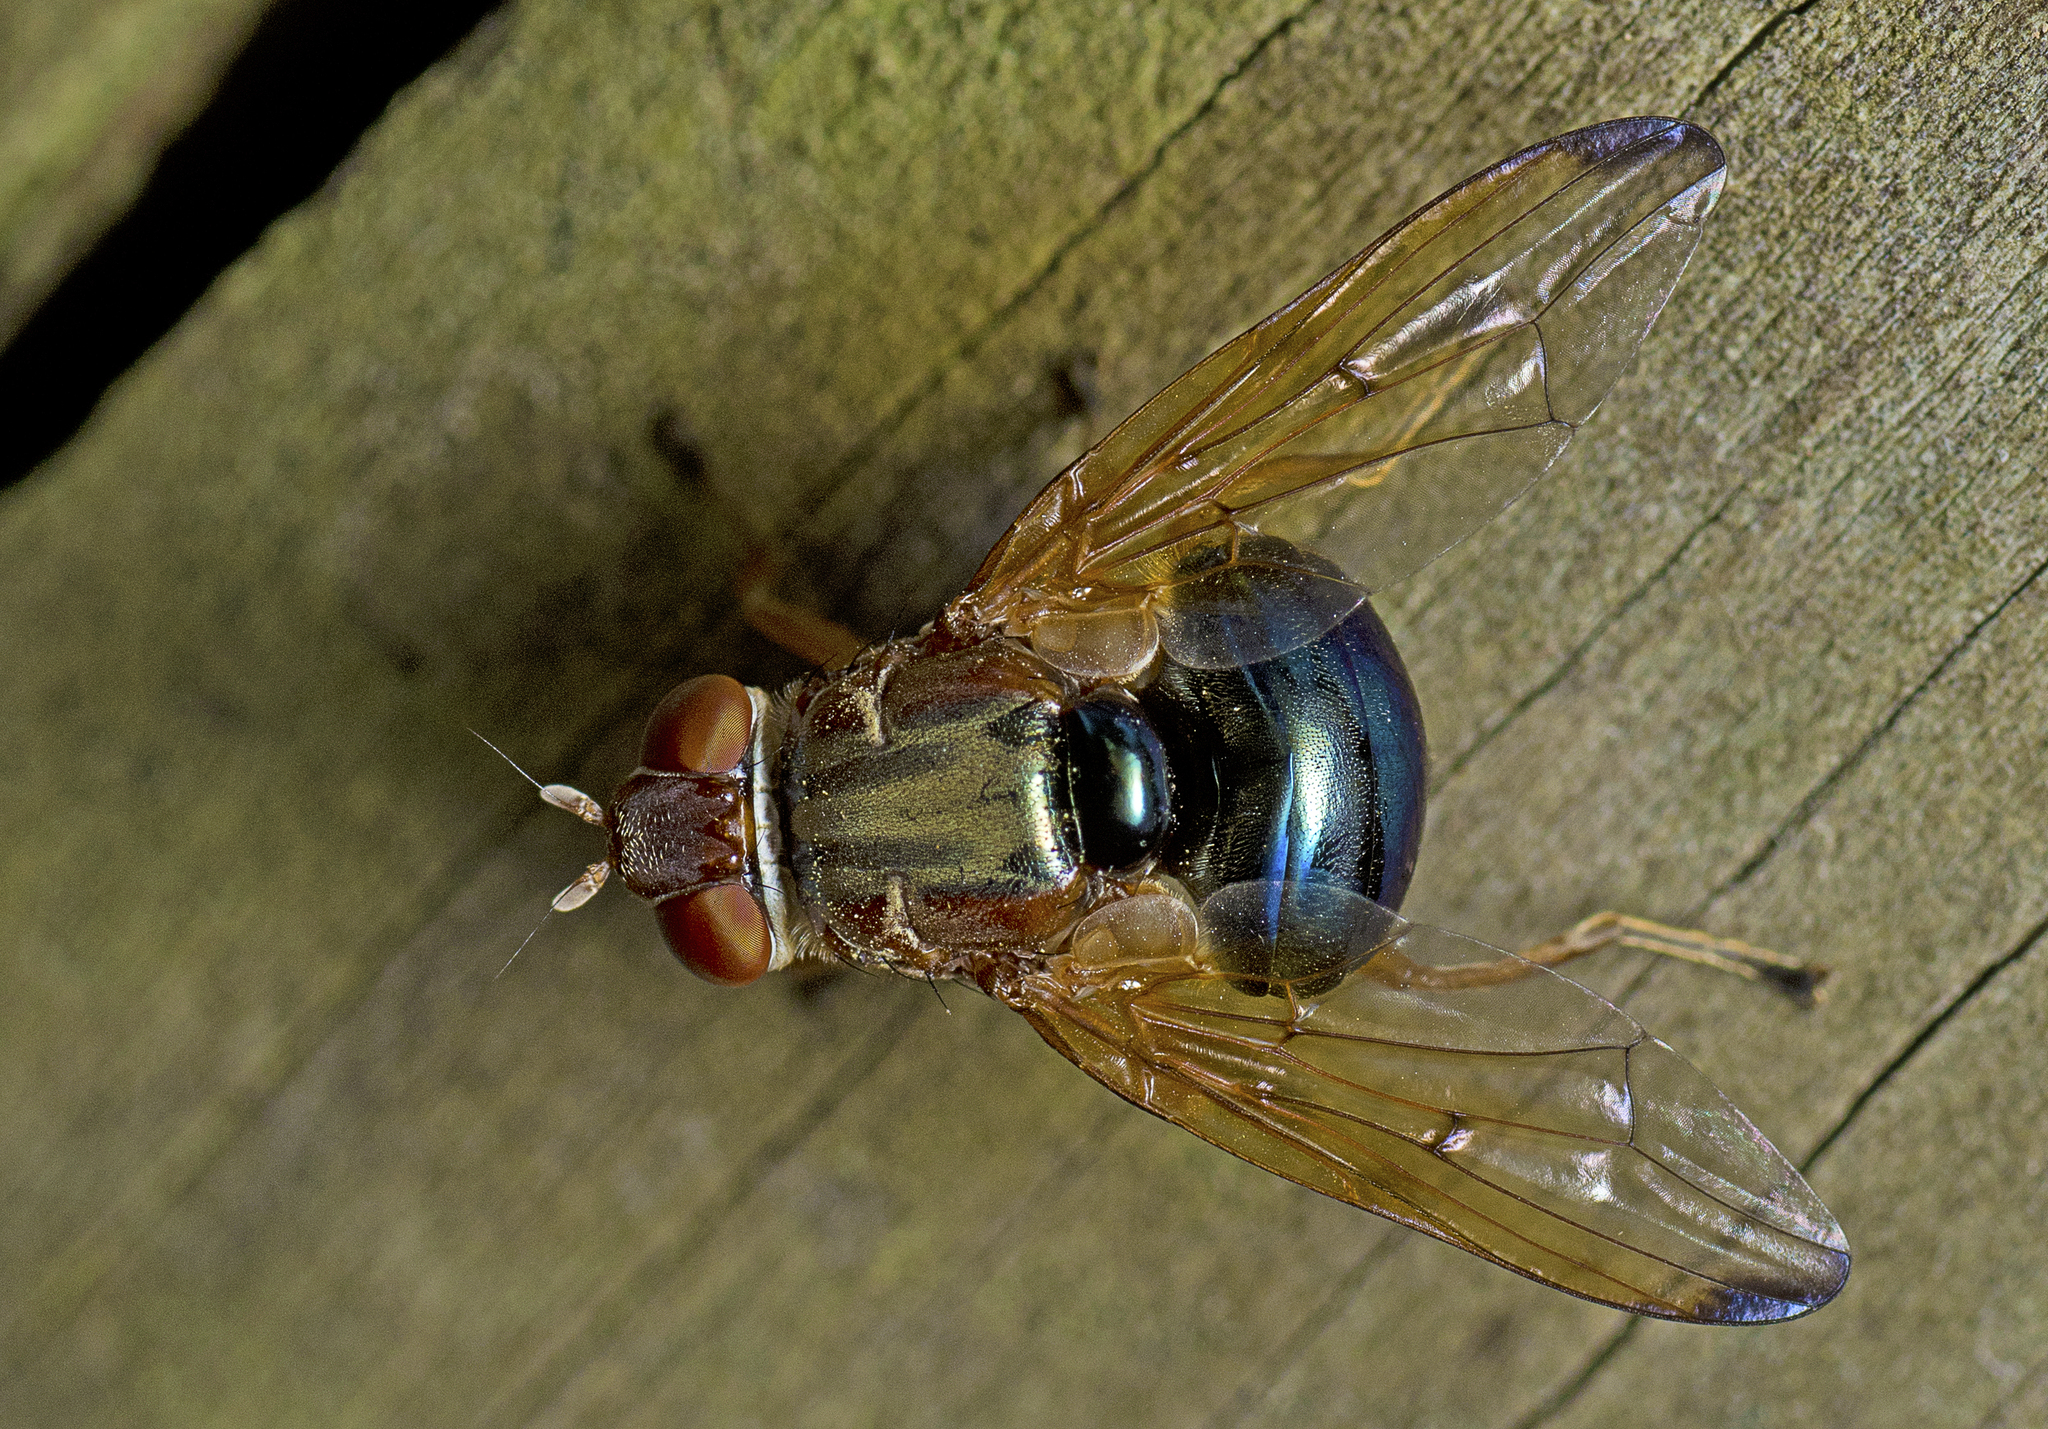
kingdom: Animalia
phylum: Arthropoda
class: Insecta
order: Diptera
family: Platystomatidae
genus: Lamprogaster
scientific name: Lamprogaster flavipennis
